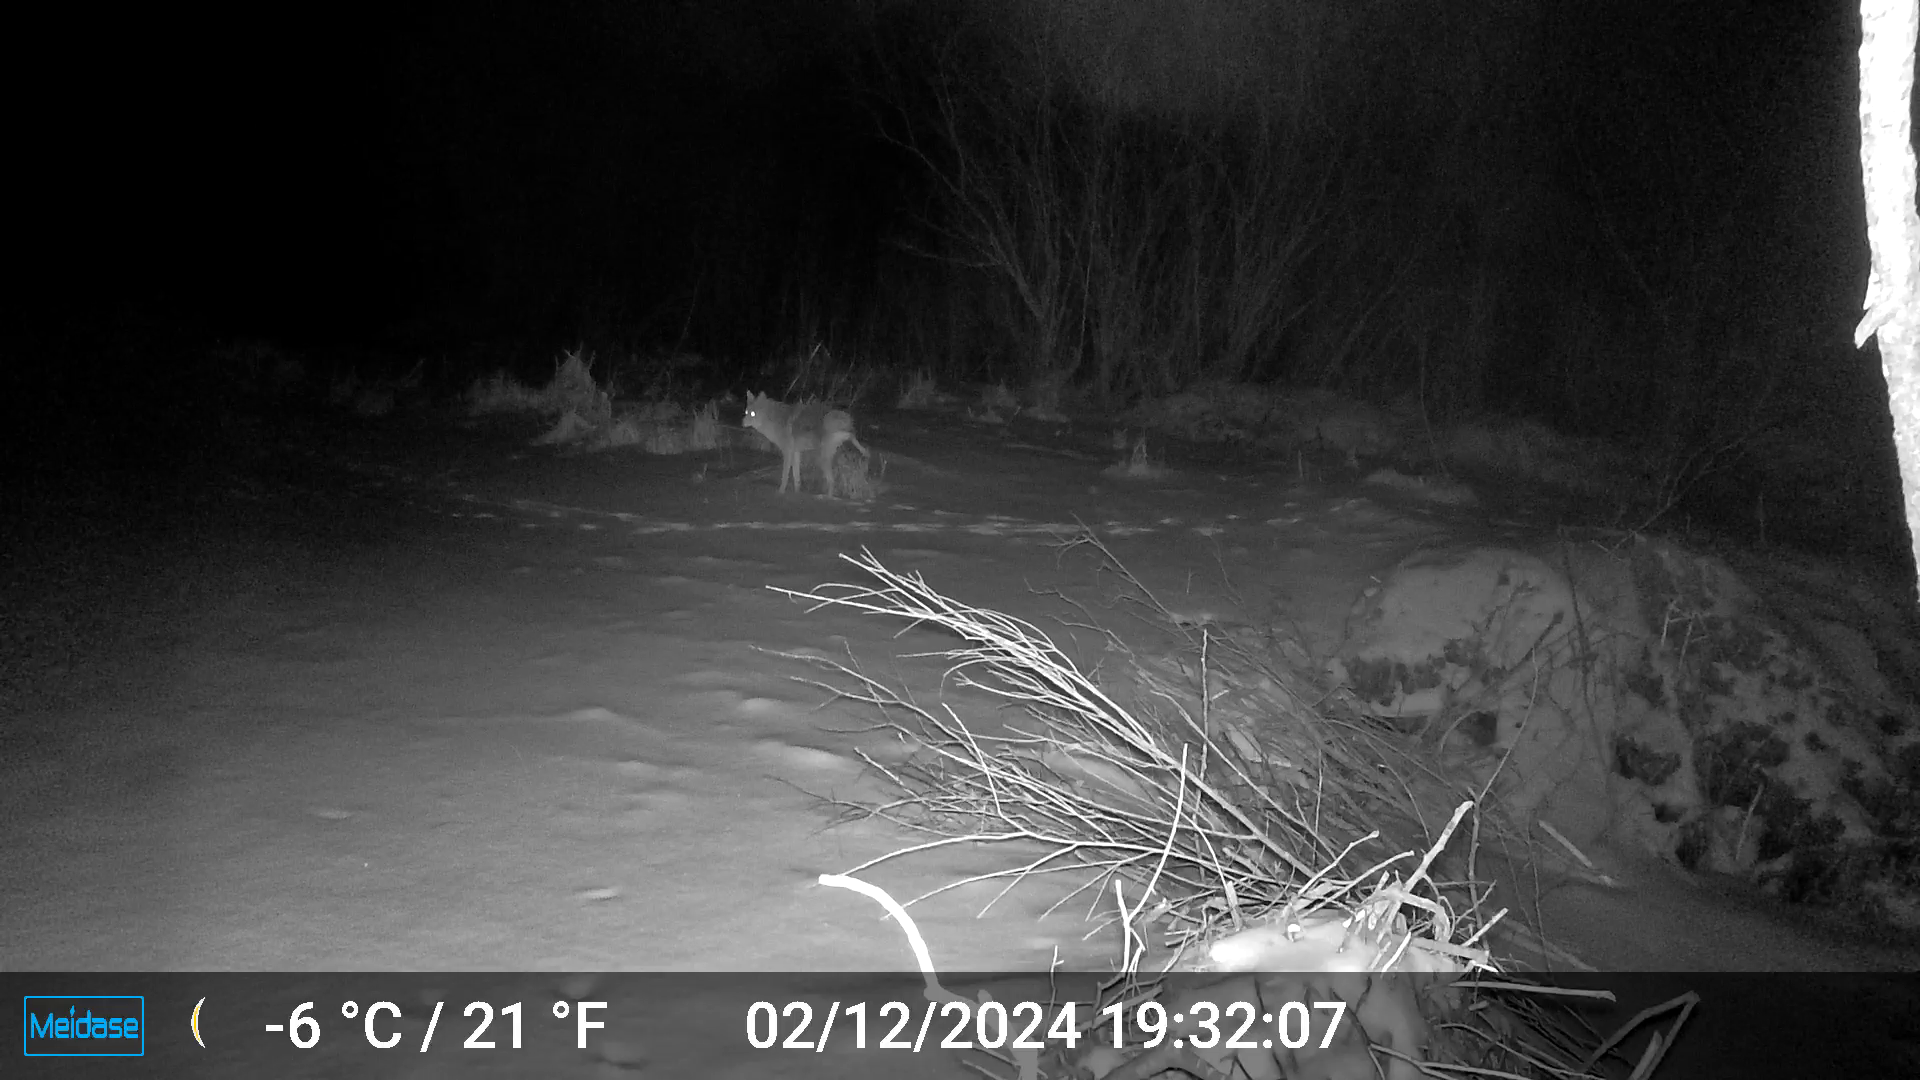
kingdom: Animalia
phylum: Chordata
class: Mammalia
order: Carnivora
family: Canidae
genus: Canis
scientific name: Canis latrans
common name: Coyote
